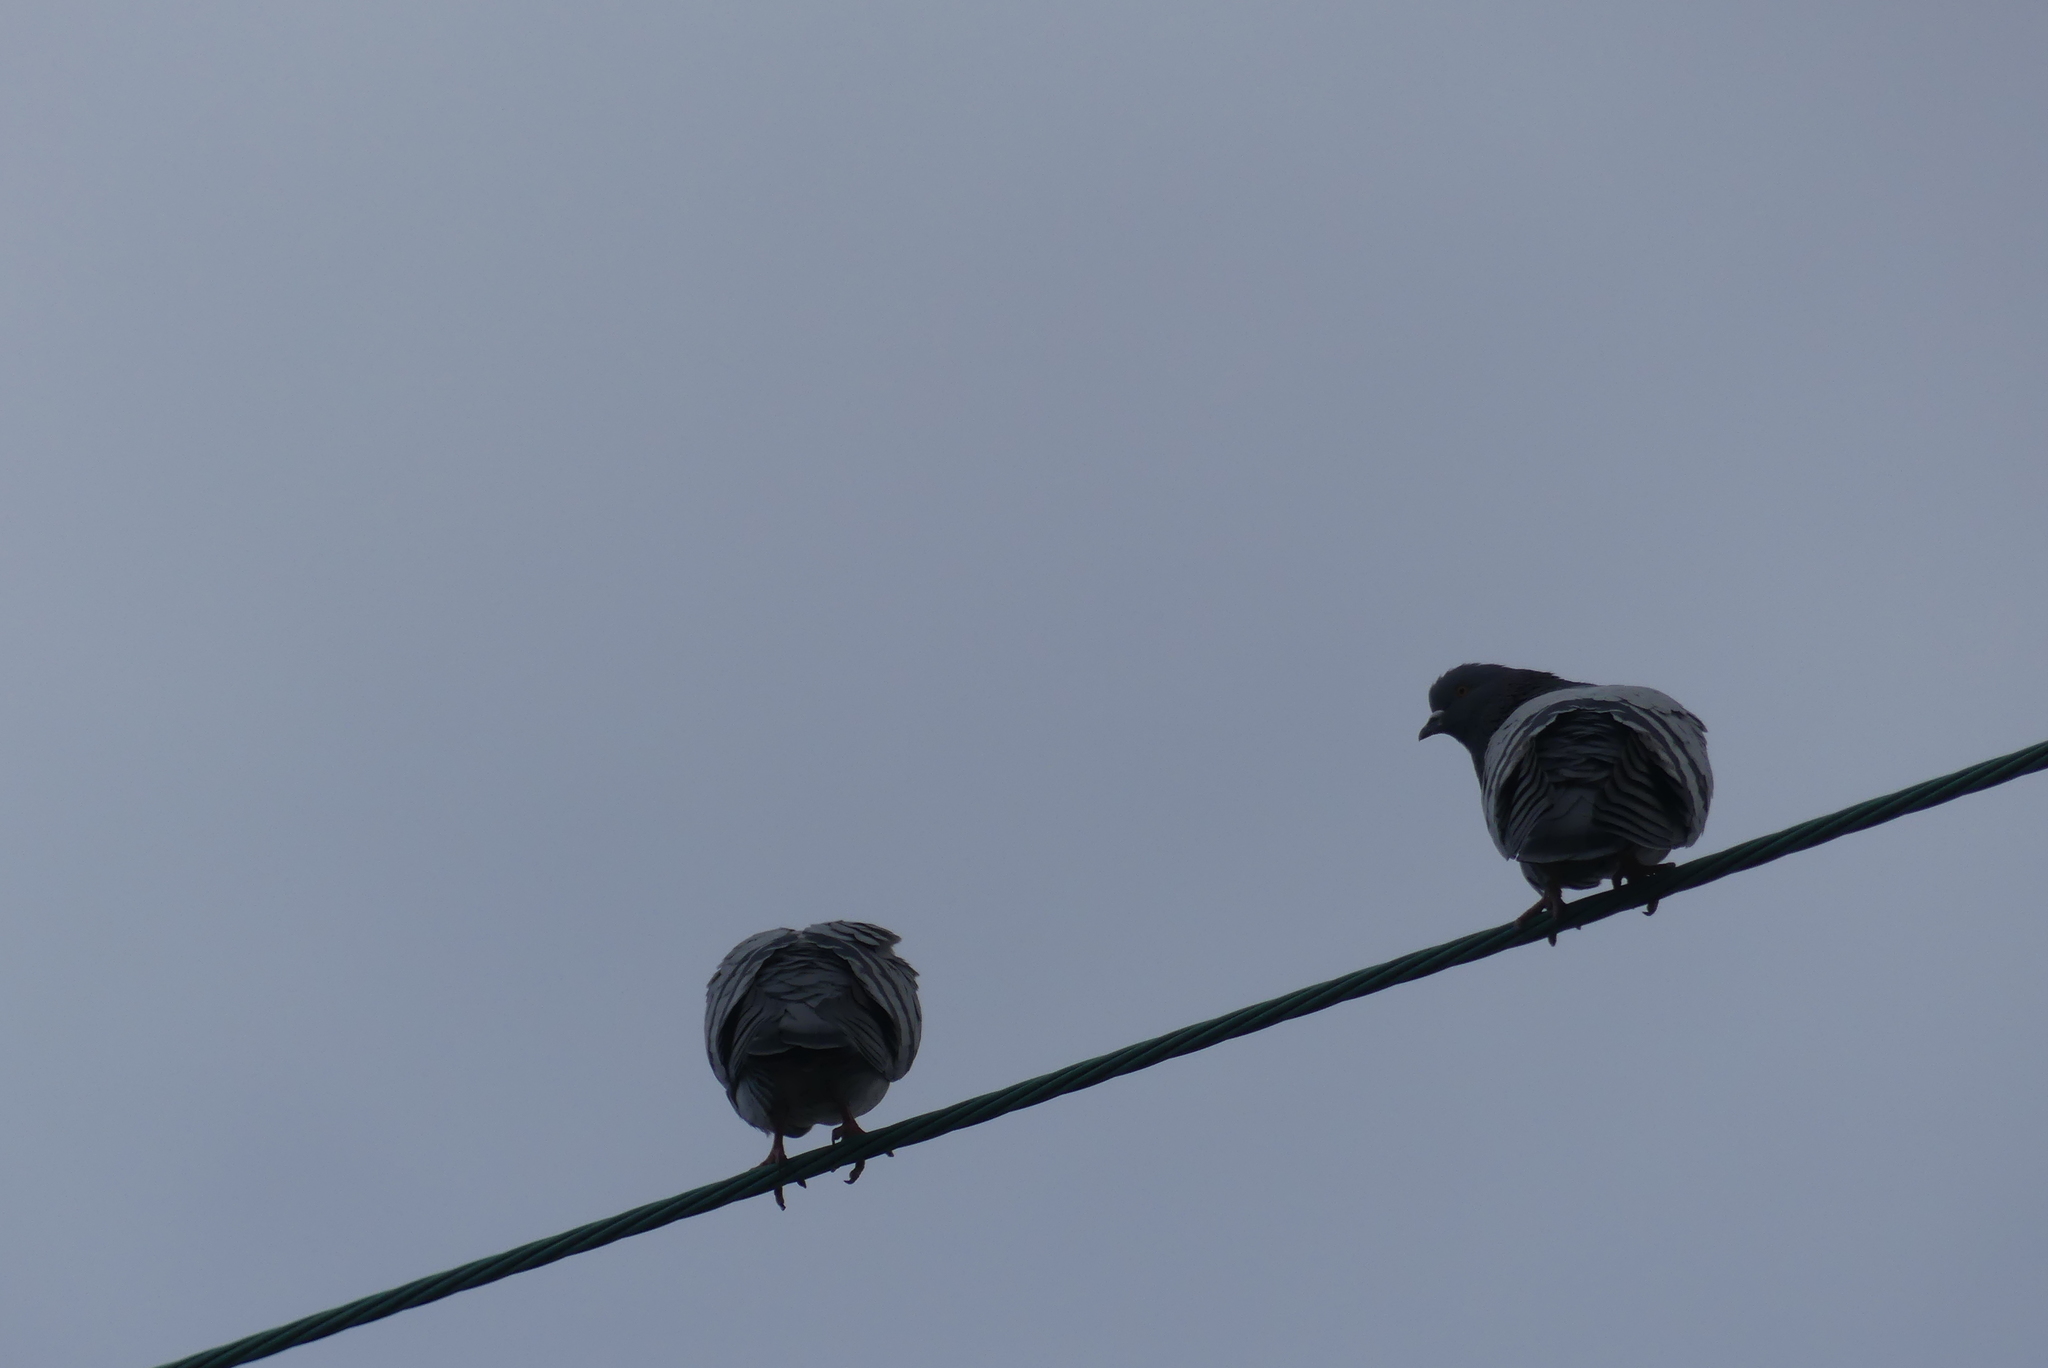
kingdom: Animalia
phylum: Chordata
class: Aves
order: Columbiformes
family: Columbidae
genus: Columba
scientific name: Columba livia
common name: Rock pigeon
